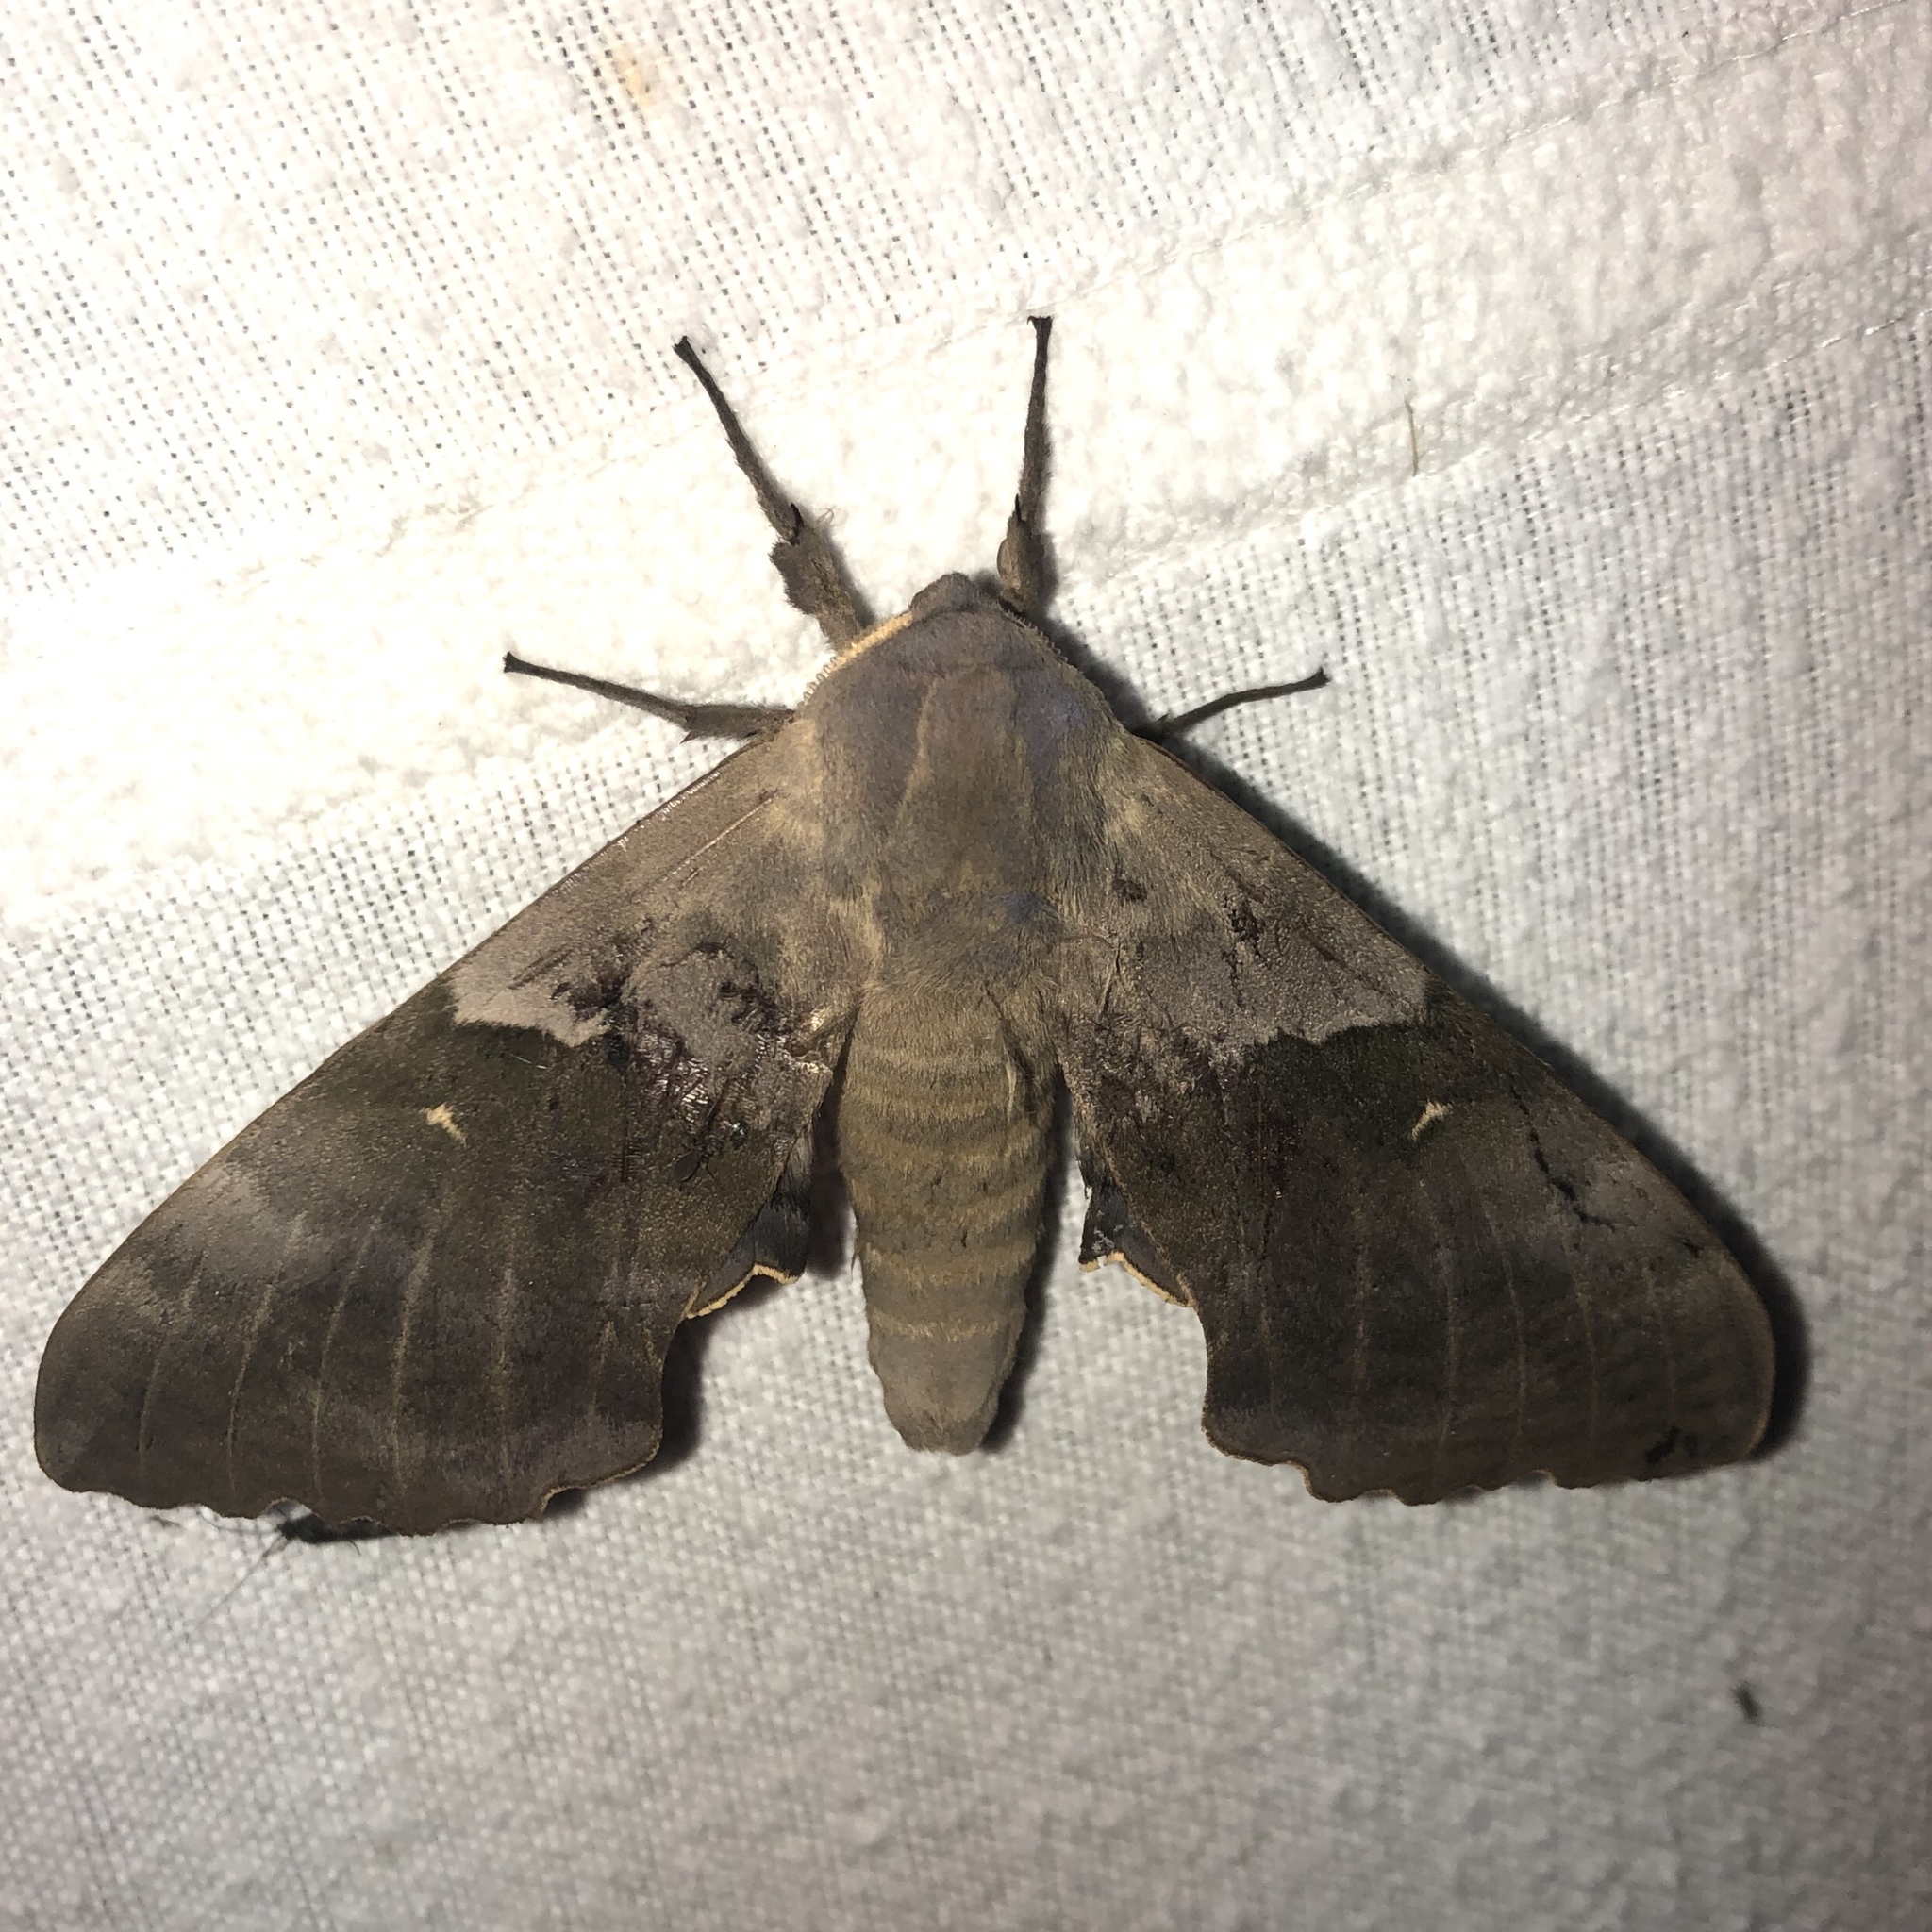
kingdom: Animalia
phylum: Arthropoda
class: Insecta
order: Lepidoptera
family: Sphingidae
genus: Pachysphinx
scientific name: Pachysphinx modesta
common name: Big poplar sphinx
